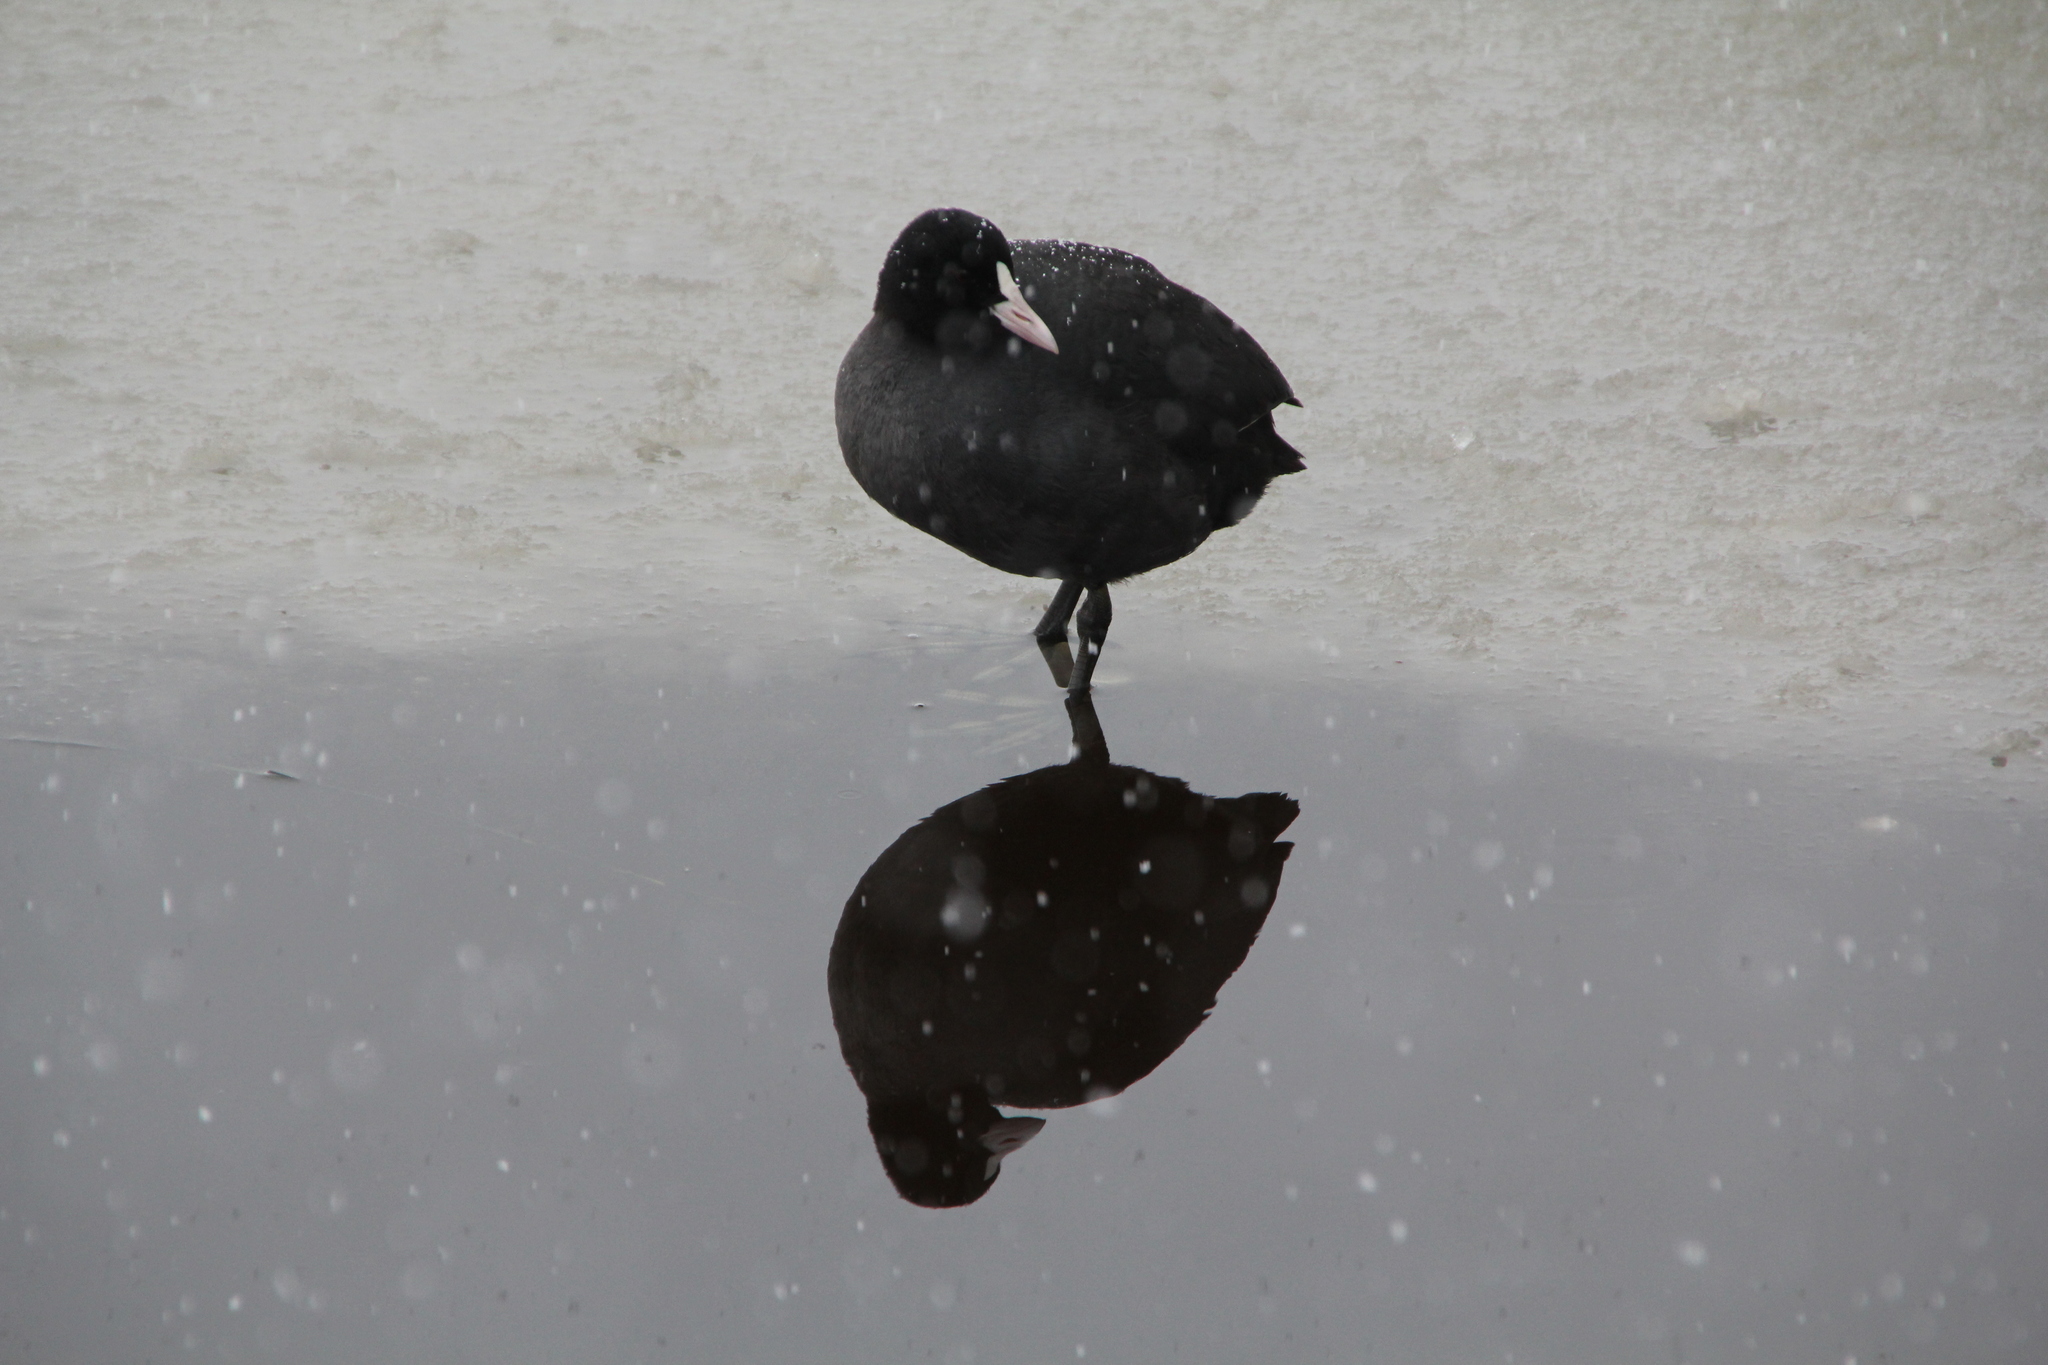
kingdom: Animalia
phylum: Chordata
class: Aves
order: Gruiformes
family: Rallidae
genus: Fulica
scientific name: Fulica atra
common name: Eurasian coot
